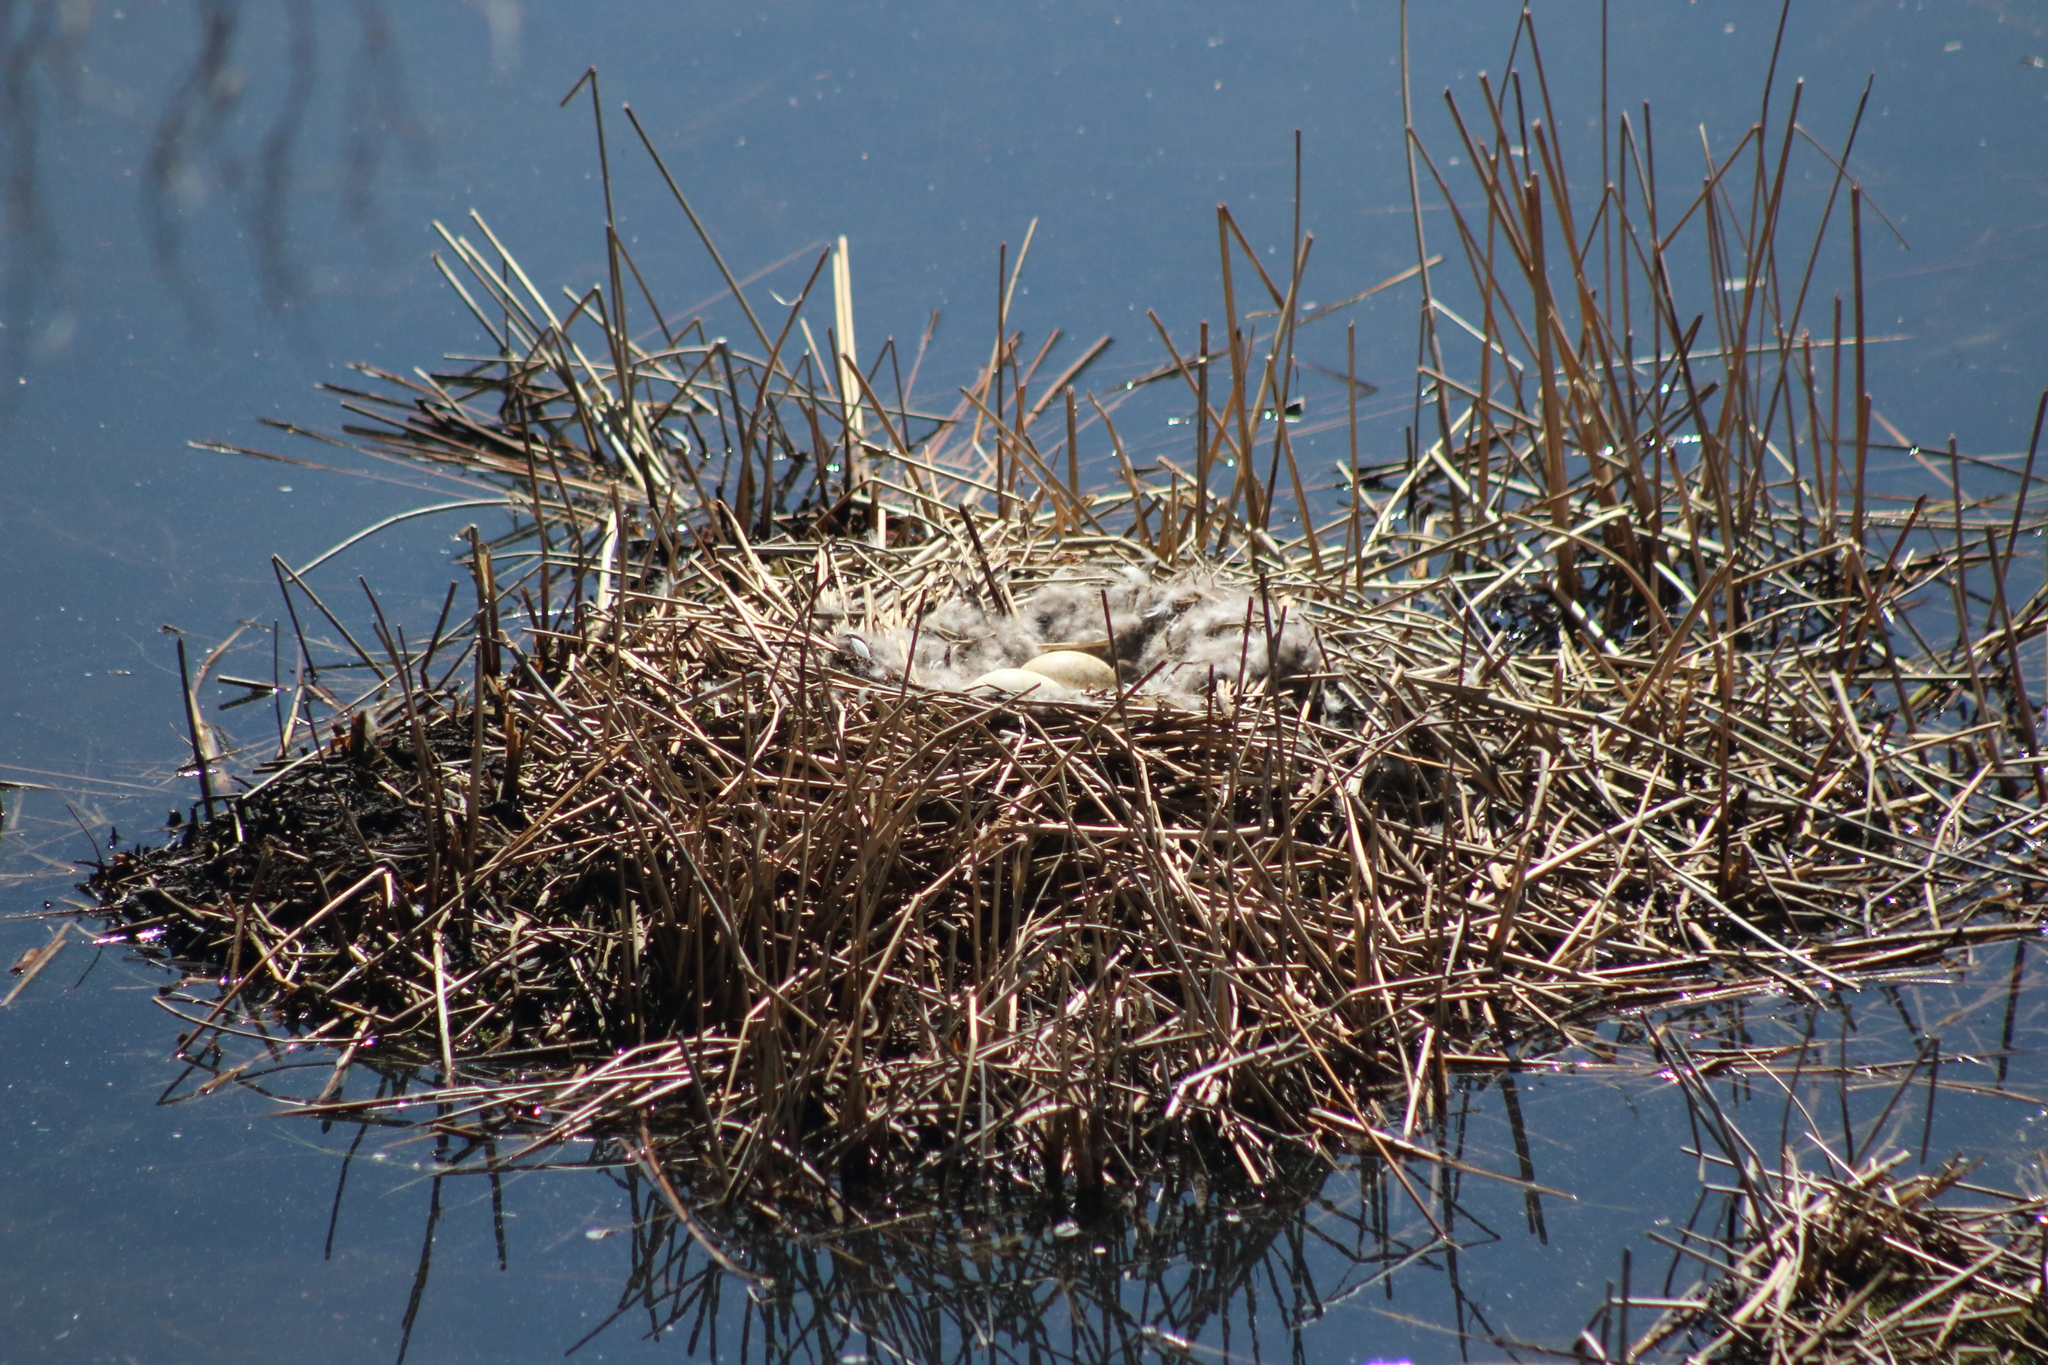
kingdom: Animalia
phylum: Chordata
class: Aves
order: Anseriformes
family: Anatidae
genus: Branta
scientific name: Branta canadensis
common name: Canada goose
